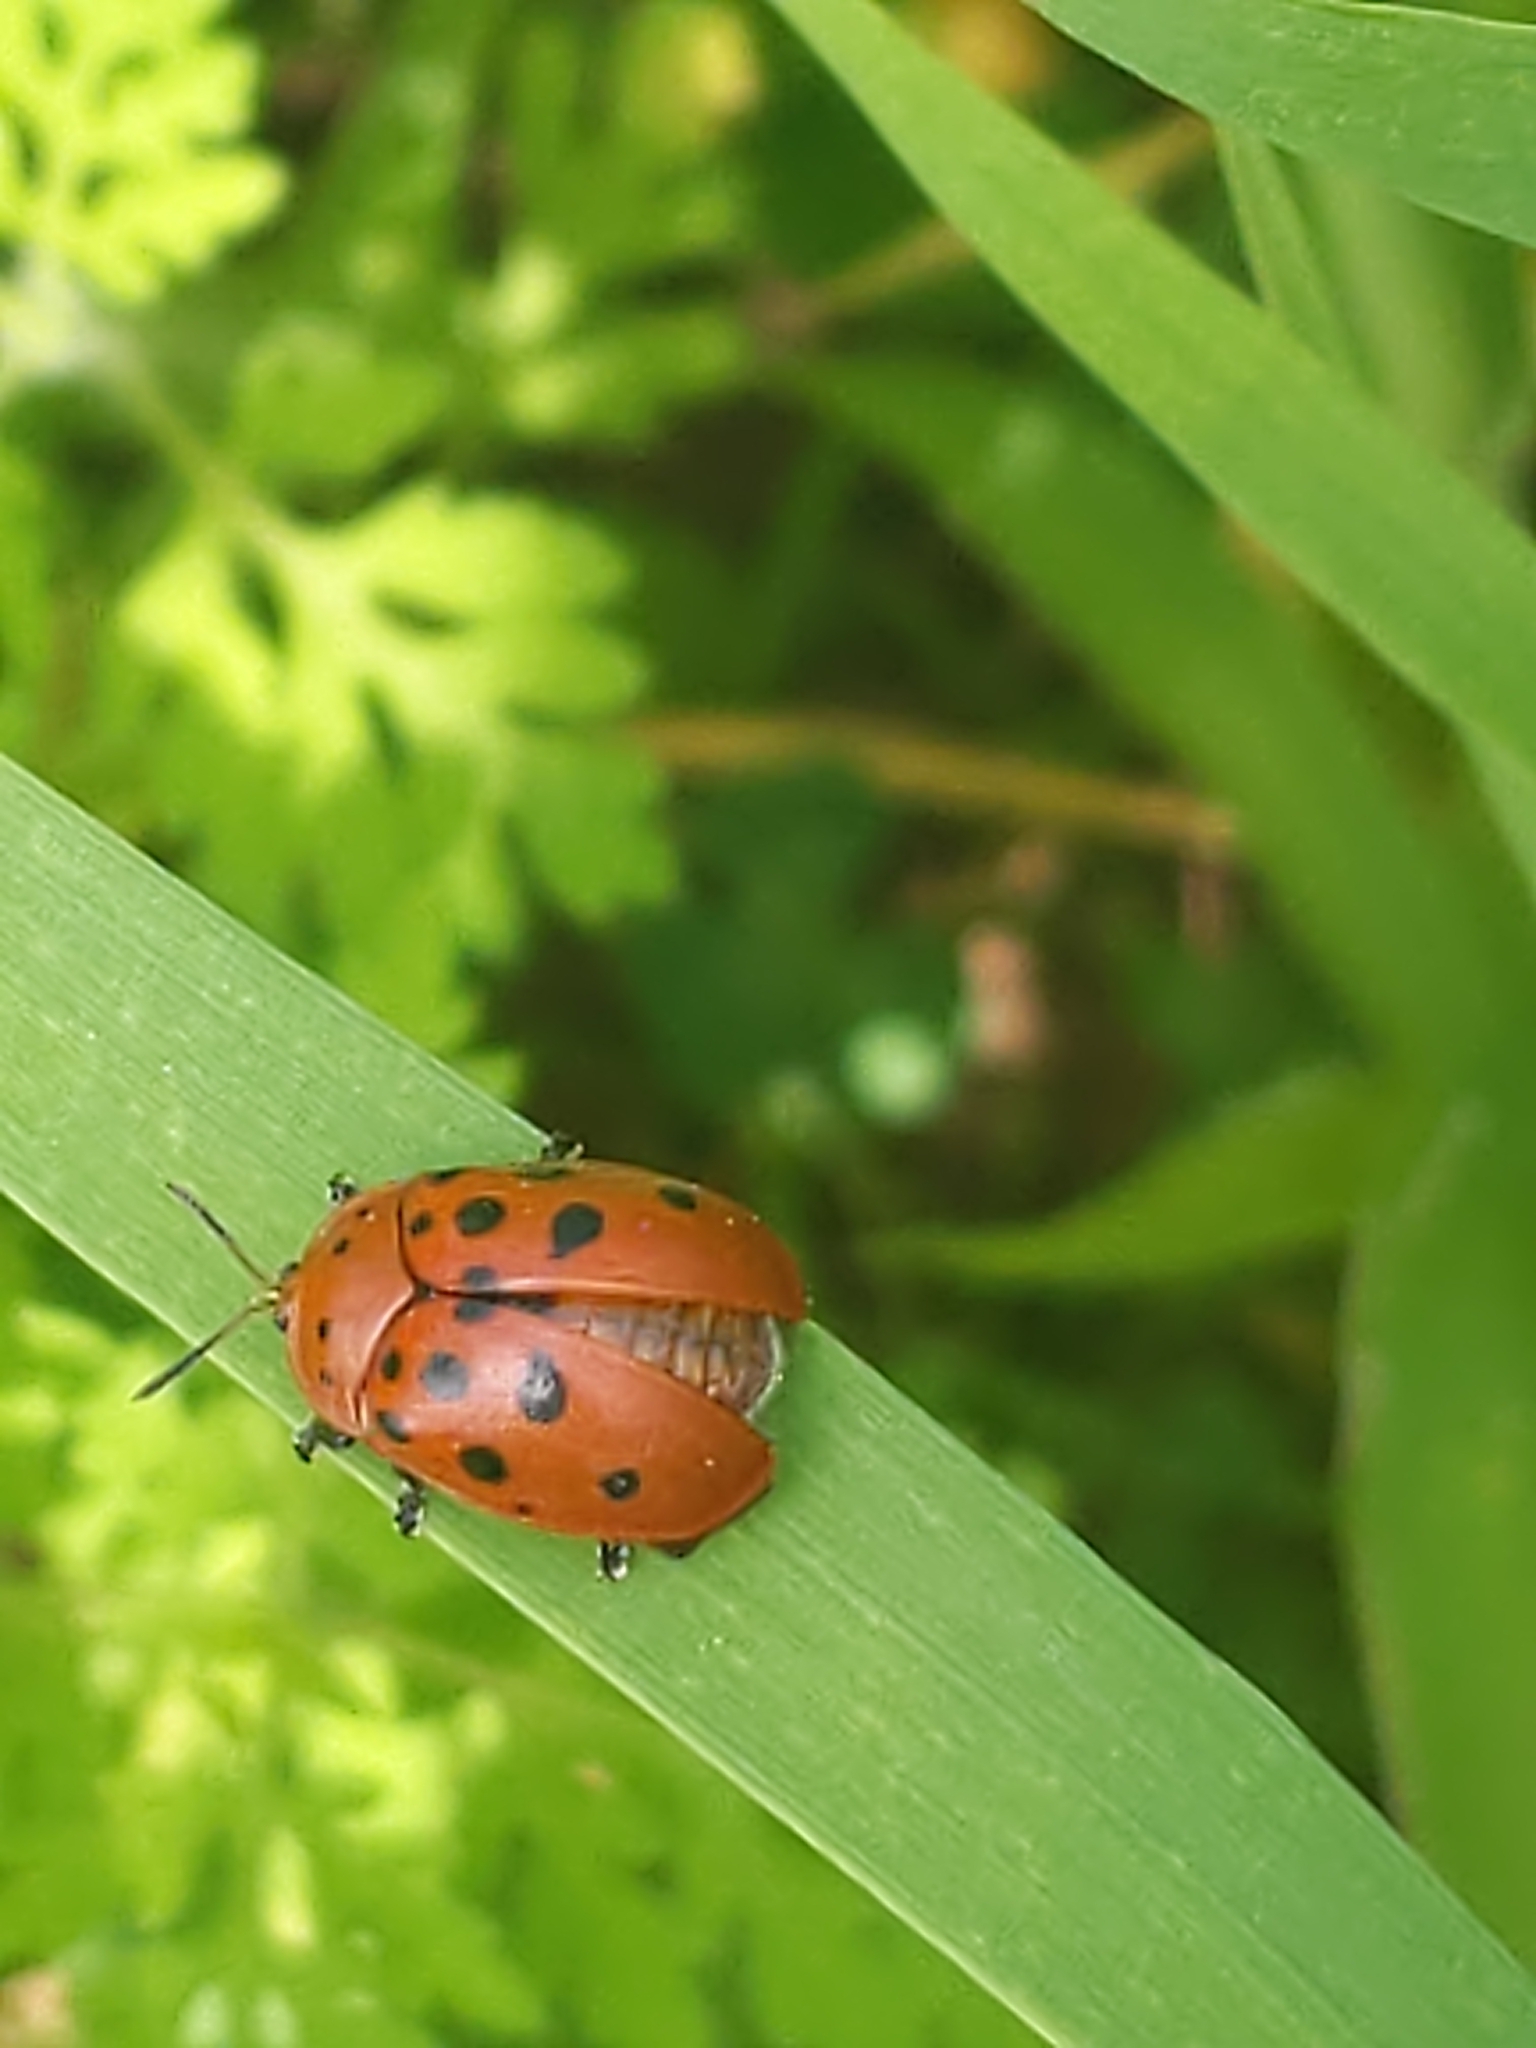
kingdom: Animalia
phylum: Arthropoda
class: Insecta
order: Coleoptera
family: Chrysomelidae
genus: Chelymorpha
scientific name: Chelymorpha cassidea
